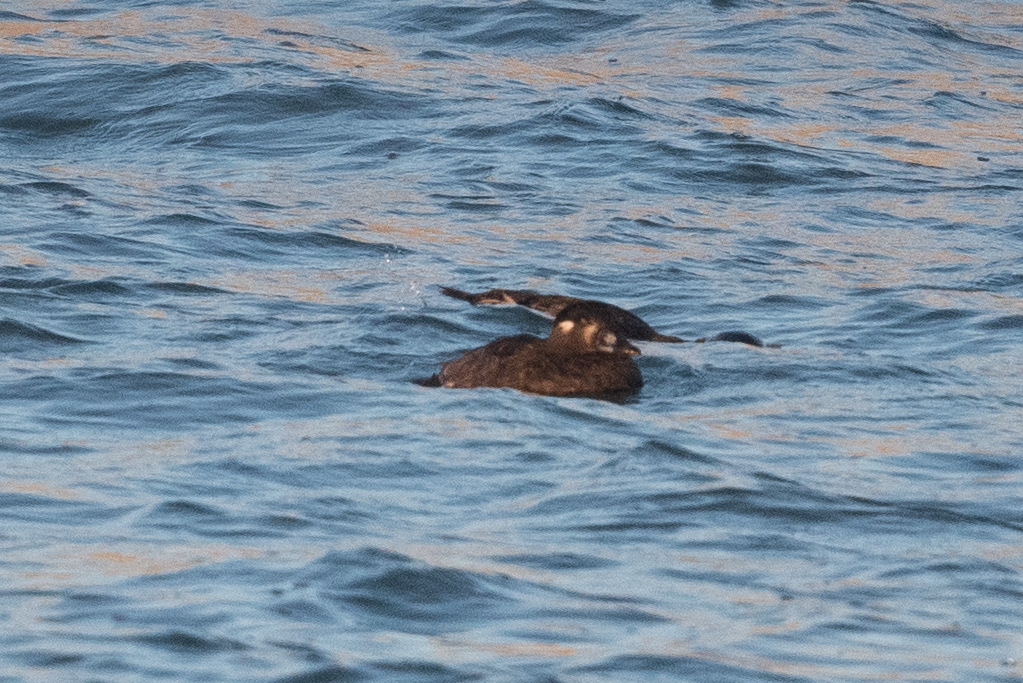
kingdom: Animalia
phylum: Chordata
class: Aves
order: Anseriformes
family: Anatidae
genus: Melanitta
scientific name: Melanitta perspicillata
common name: Surf scoter
